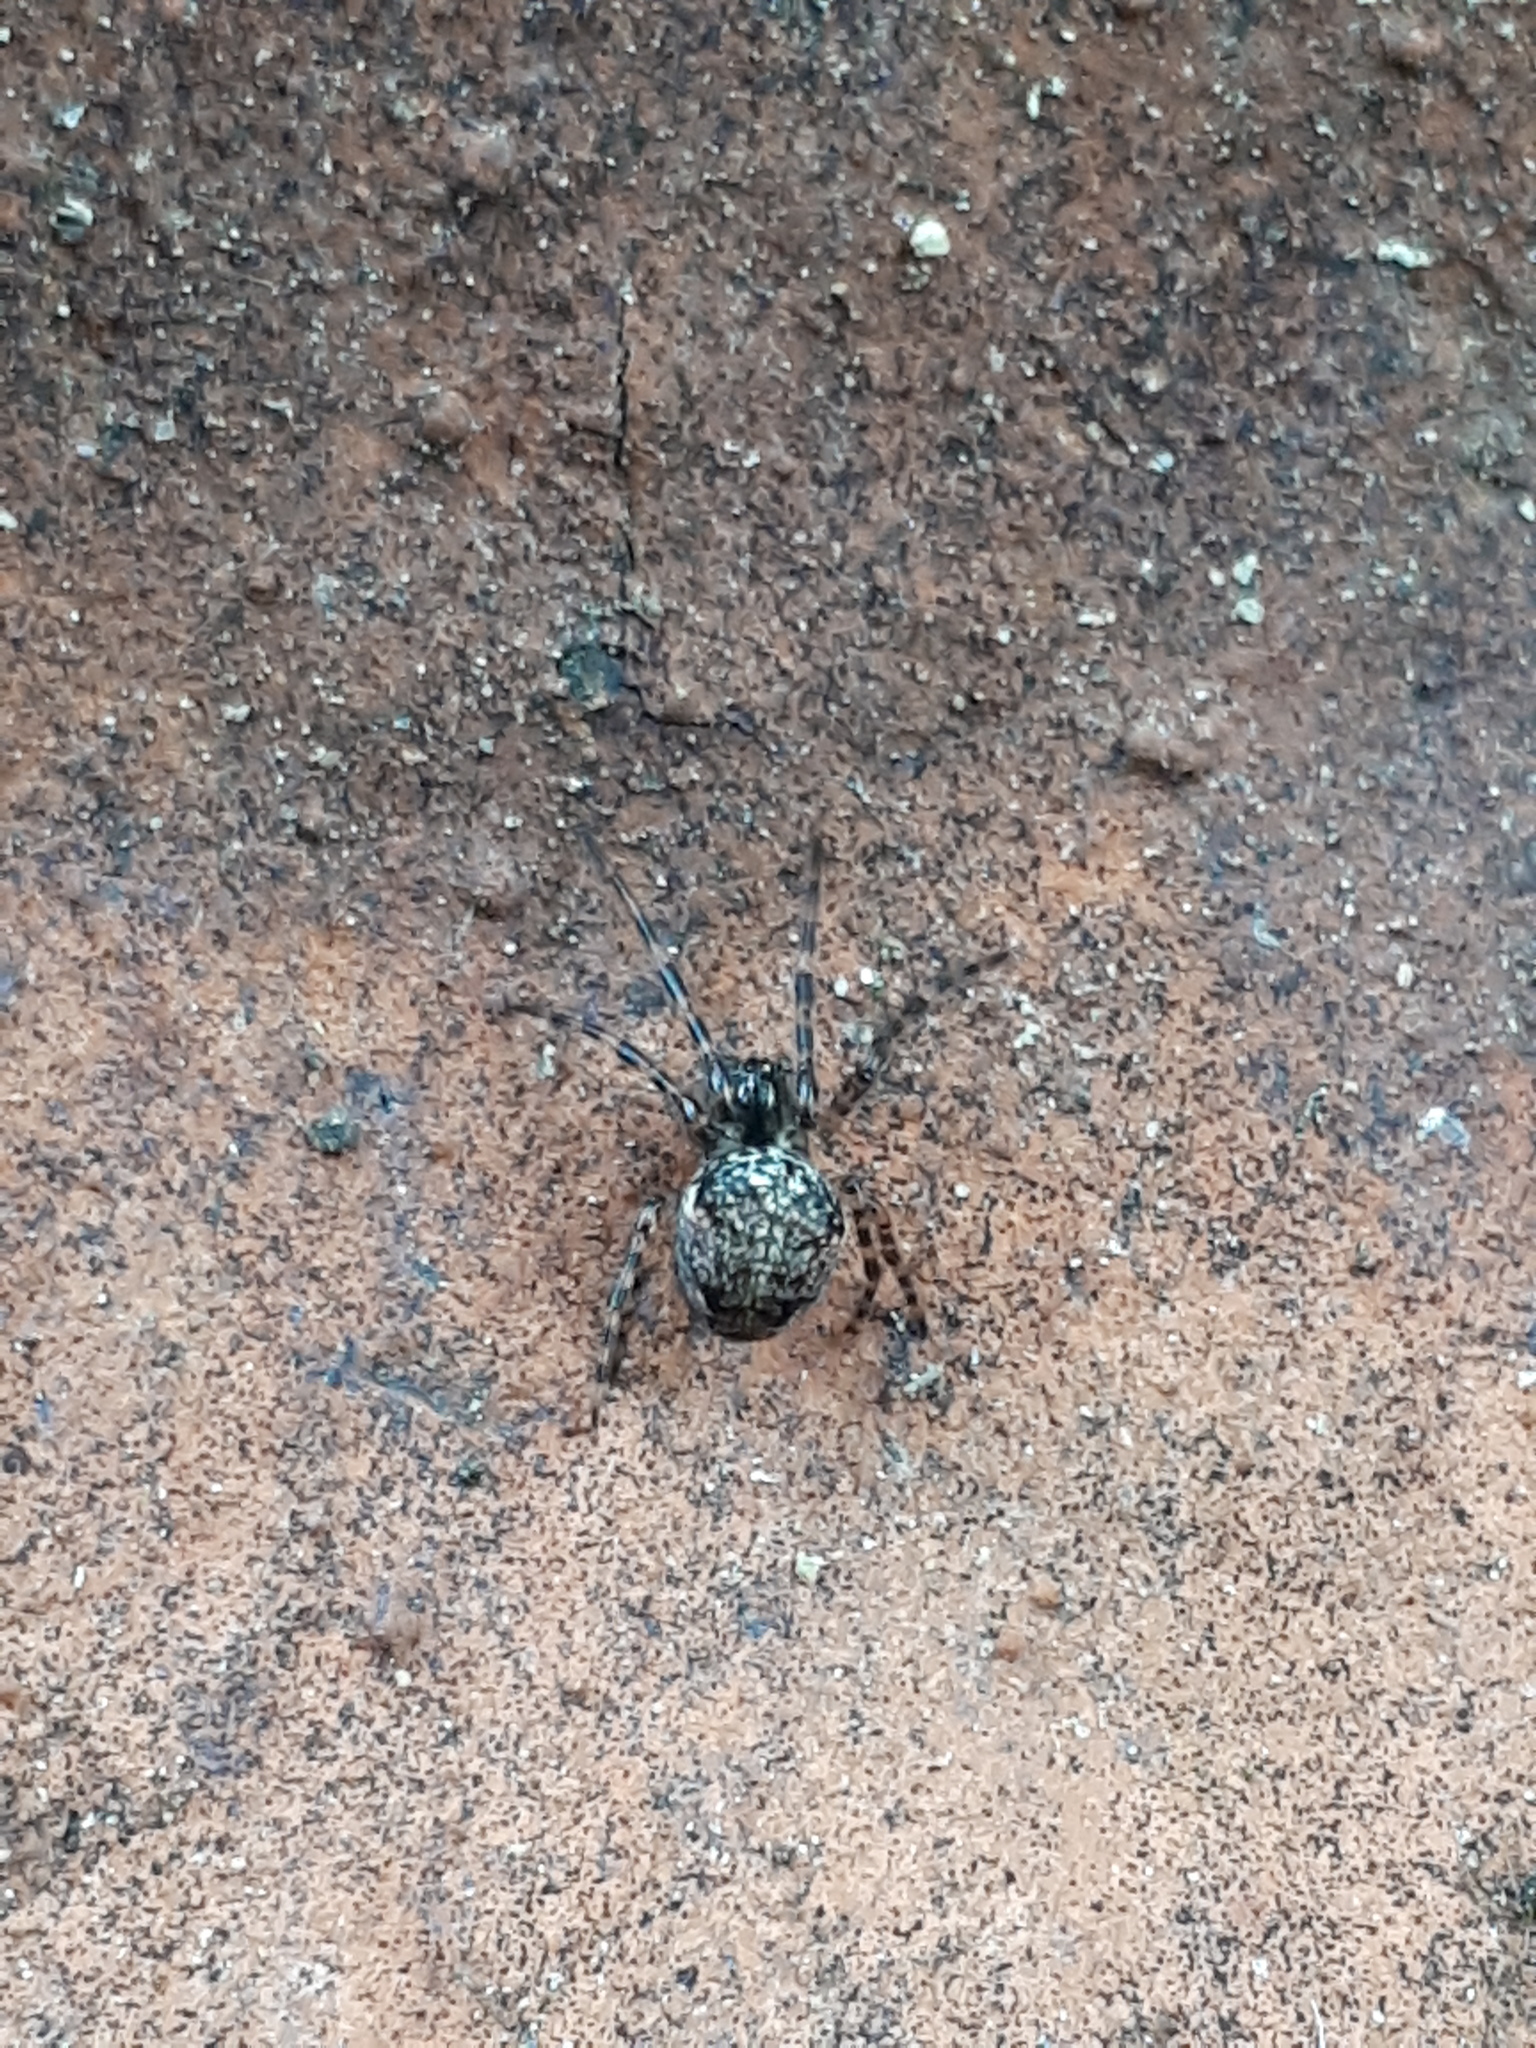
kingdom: Animalia
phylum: Arthropoda
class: Arachnida
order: Araneae
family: Tetragnathidae
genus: Metellina
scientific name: Metellina merianae
